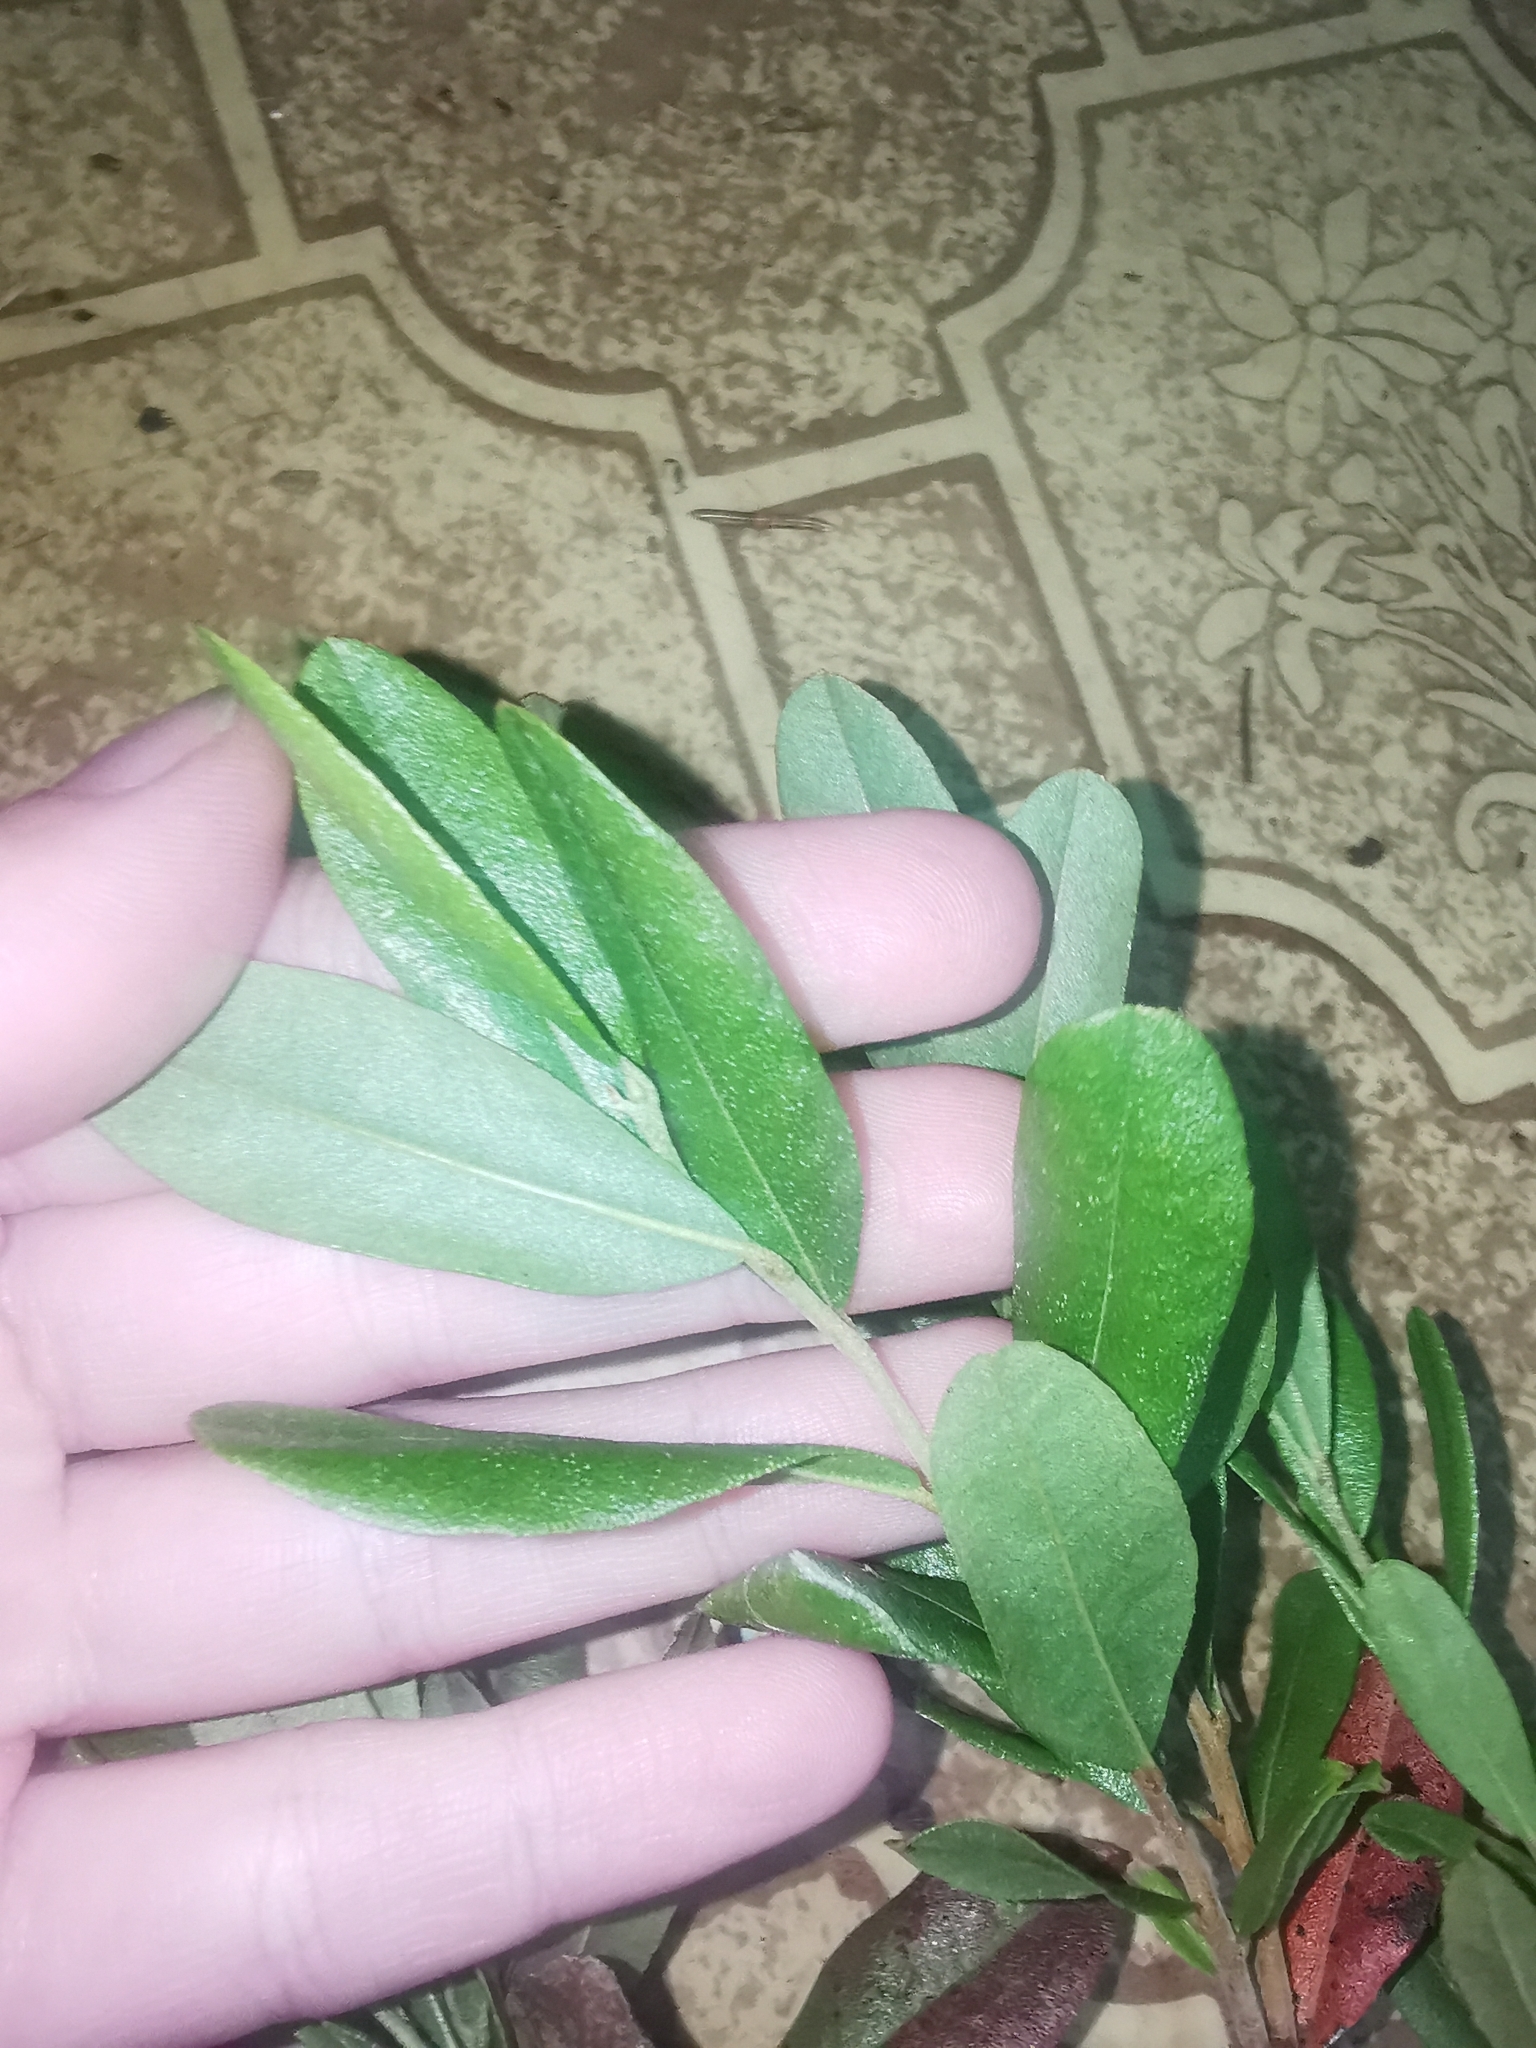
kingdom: Plantae
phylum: Tracheophyta
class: Magnoliopsida
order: Ericales
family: Ericaceae
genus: Chamaedaphne
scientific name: Chamaedaphne calyculata
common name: Leatherleaf
